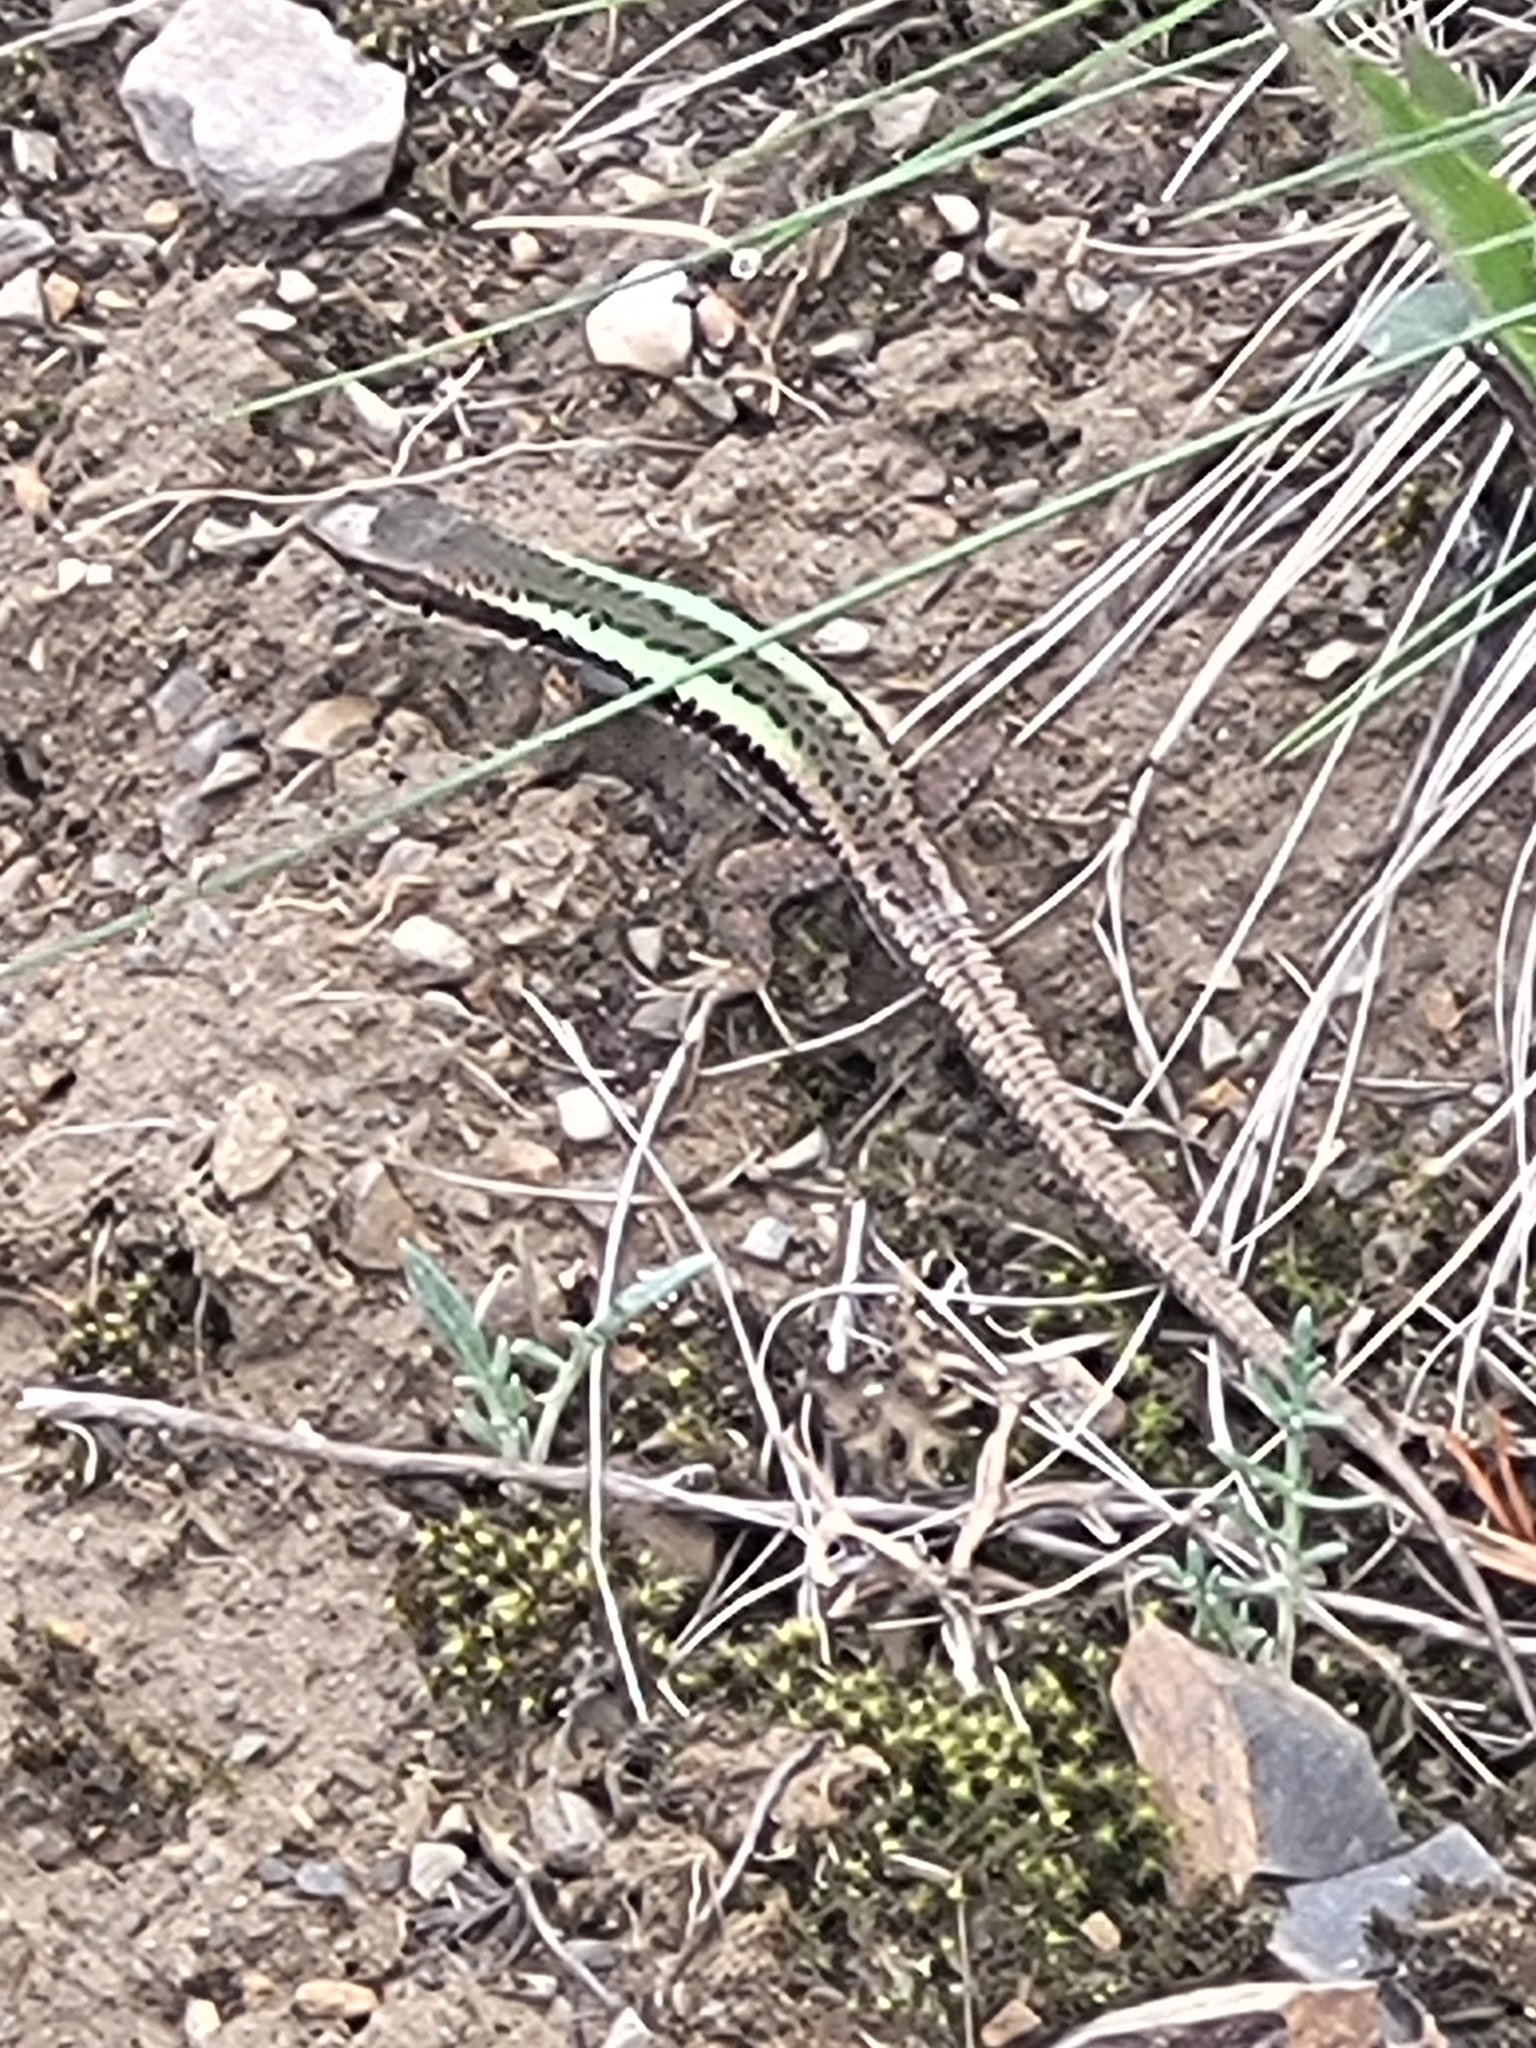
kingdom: Animalia
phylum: Chordata
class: Squamata
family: Lacertidae
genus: Darevskia
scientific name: Darevskia caucasica
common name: Caucasian llzard
